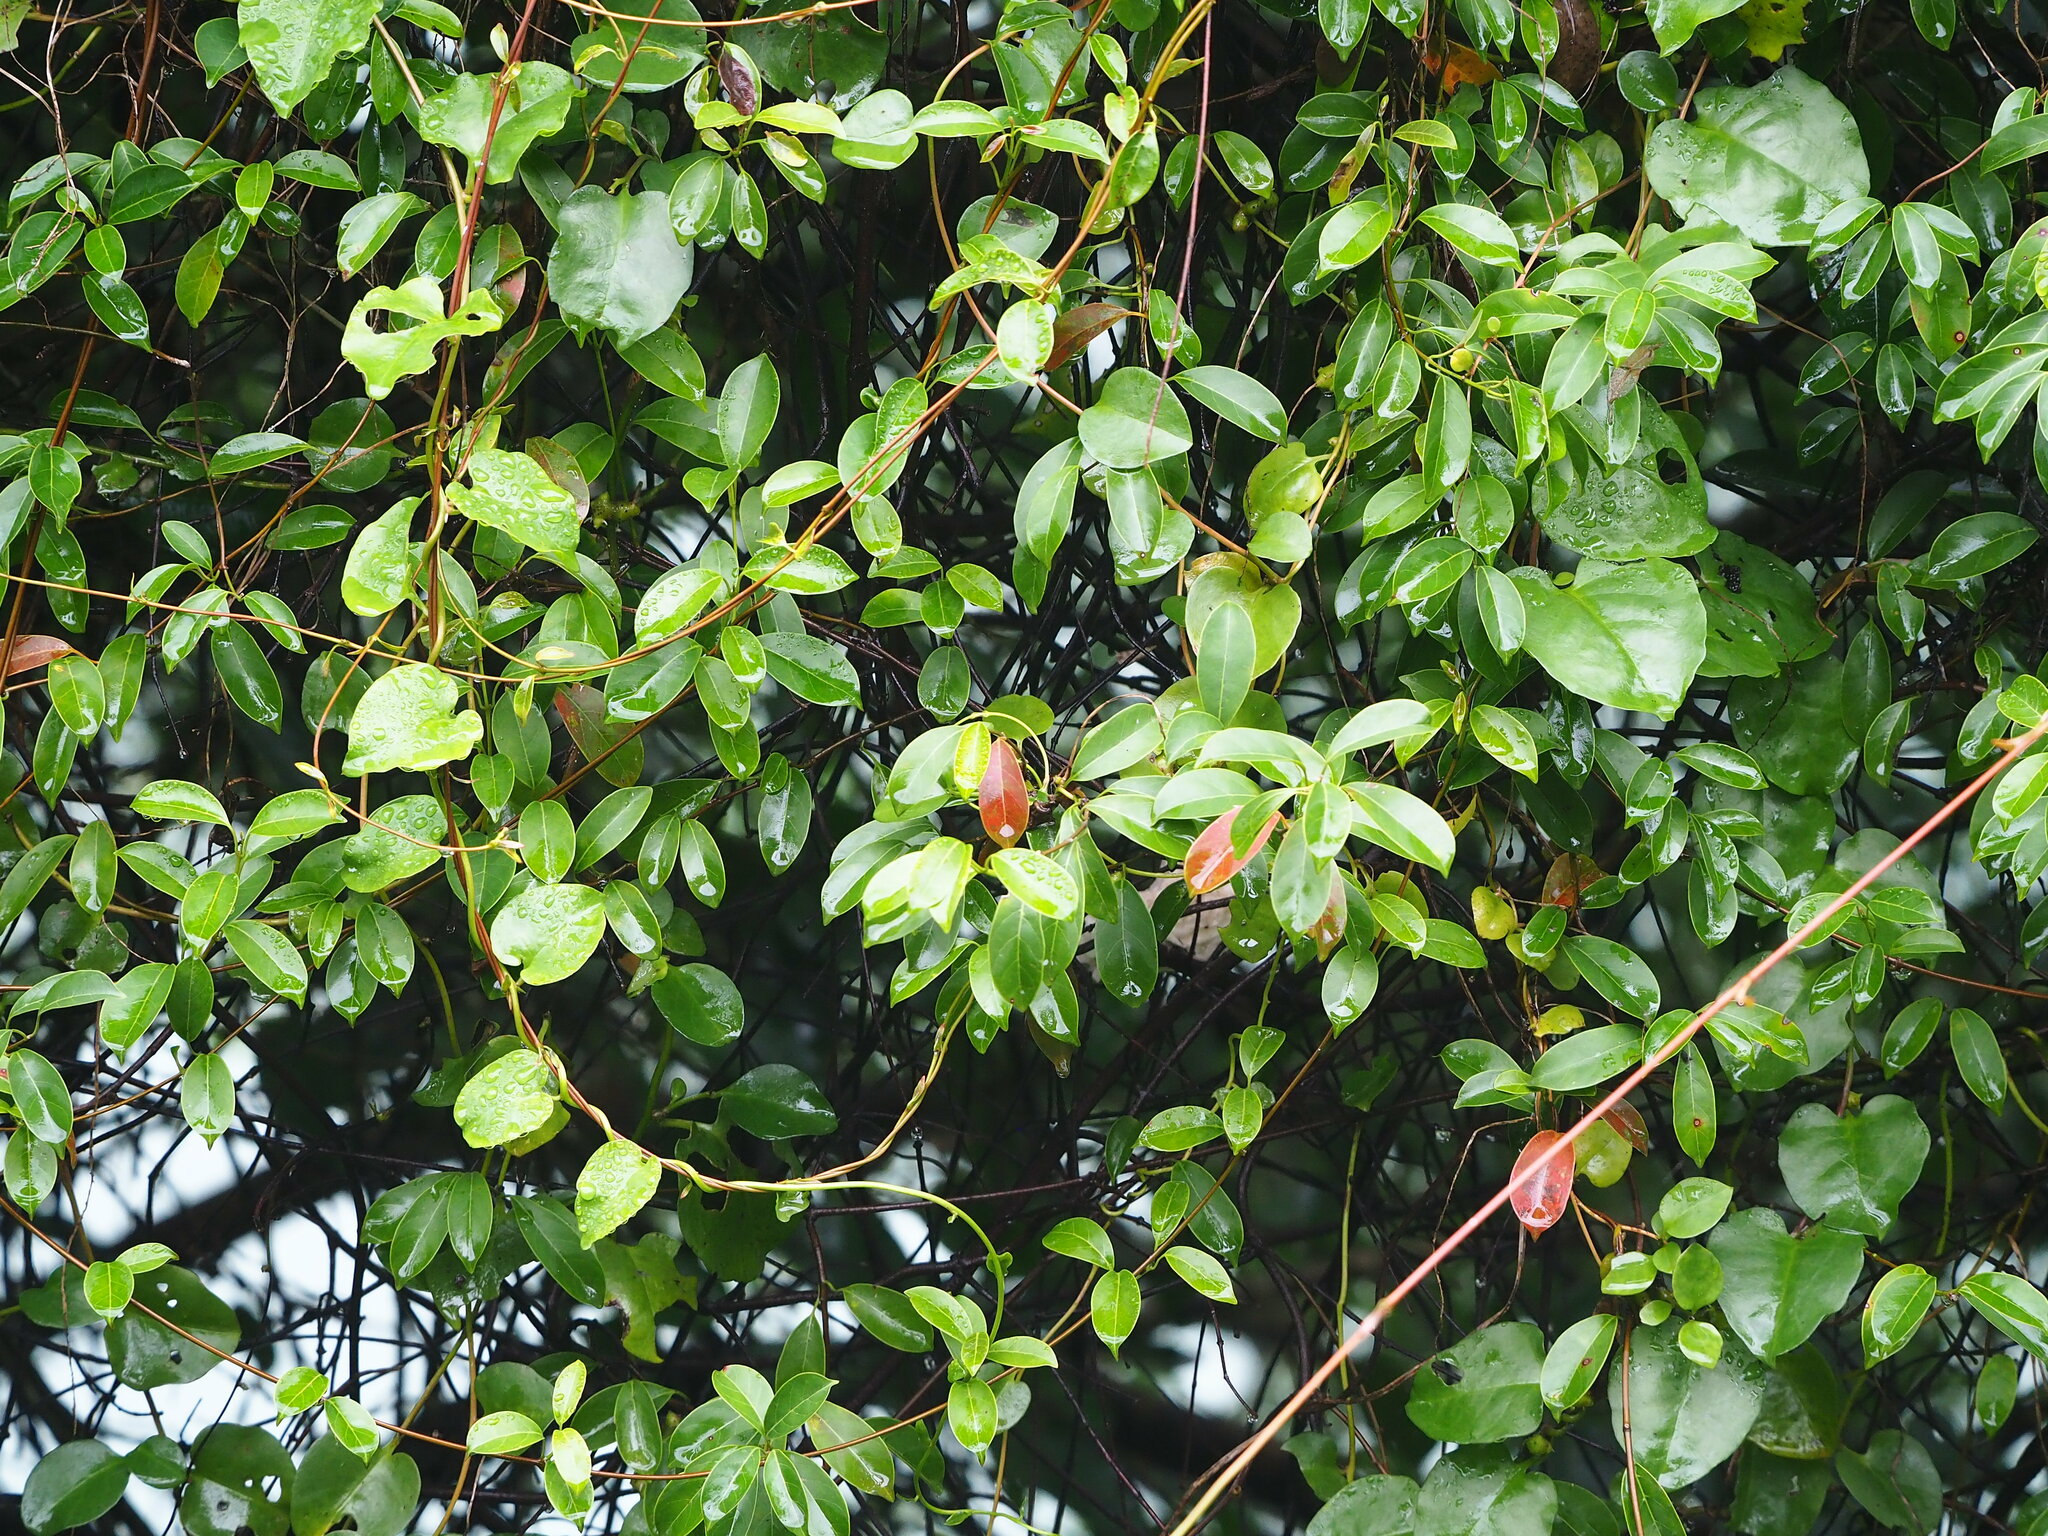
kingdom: Plantae
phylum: Tracheophyta
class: Magnoliopsida
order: Gentianales
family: Apocynaceae
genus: Urceola
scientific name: Urceola rosea
